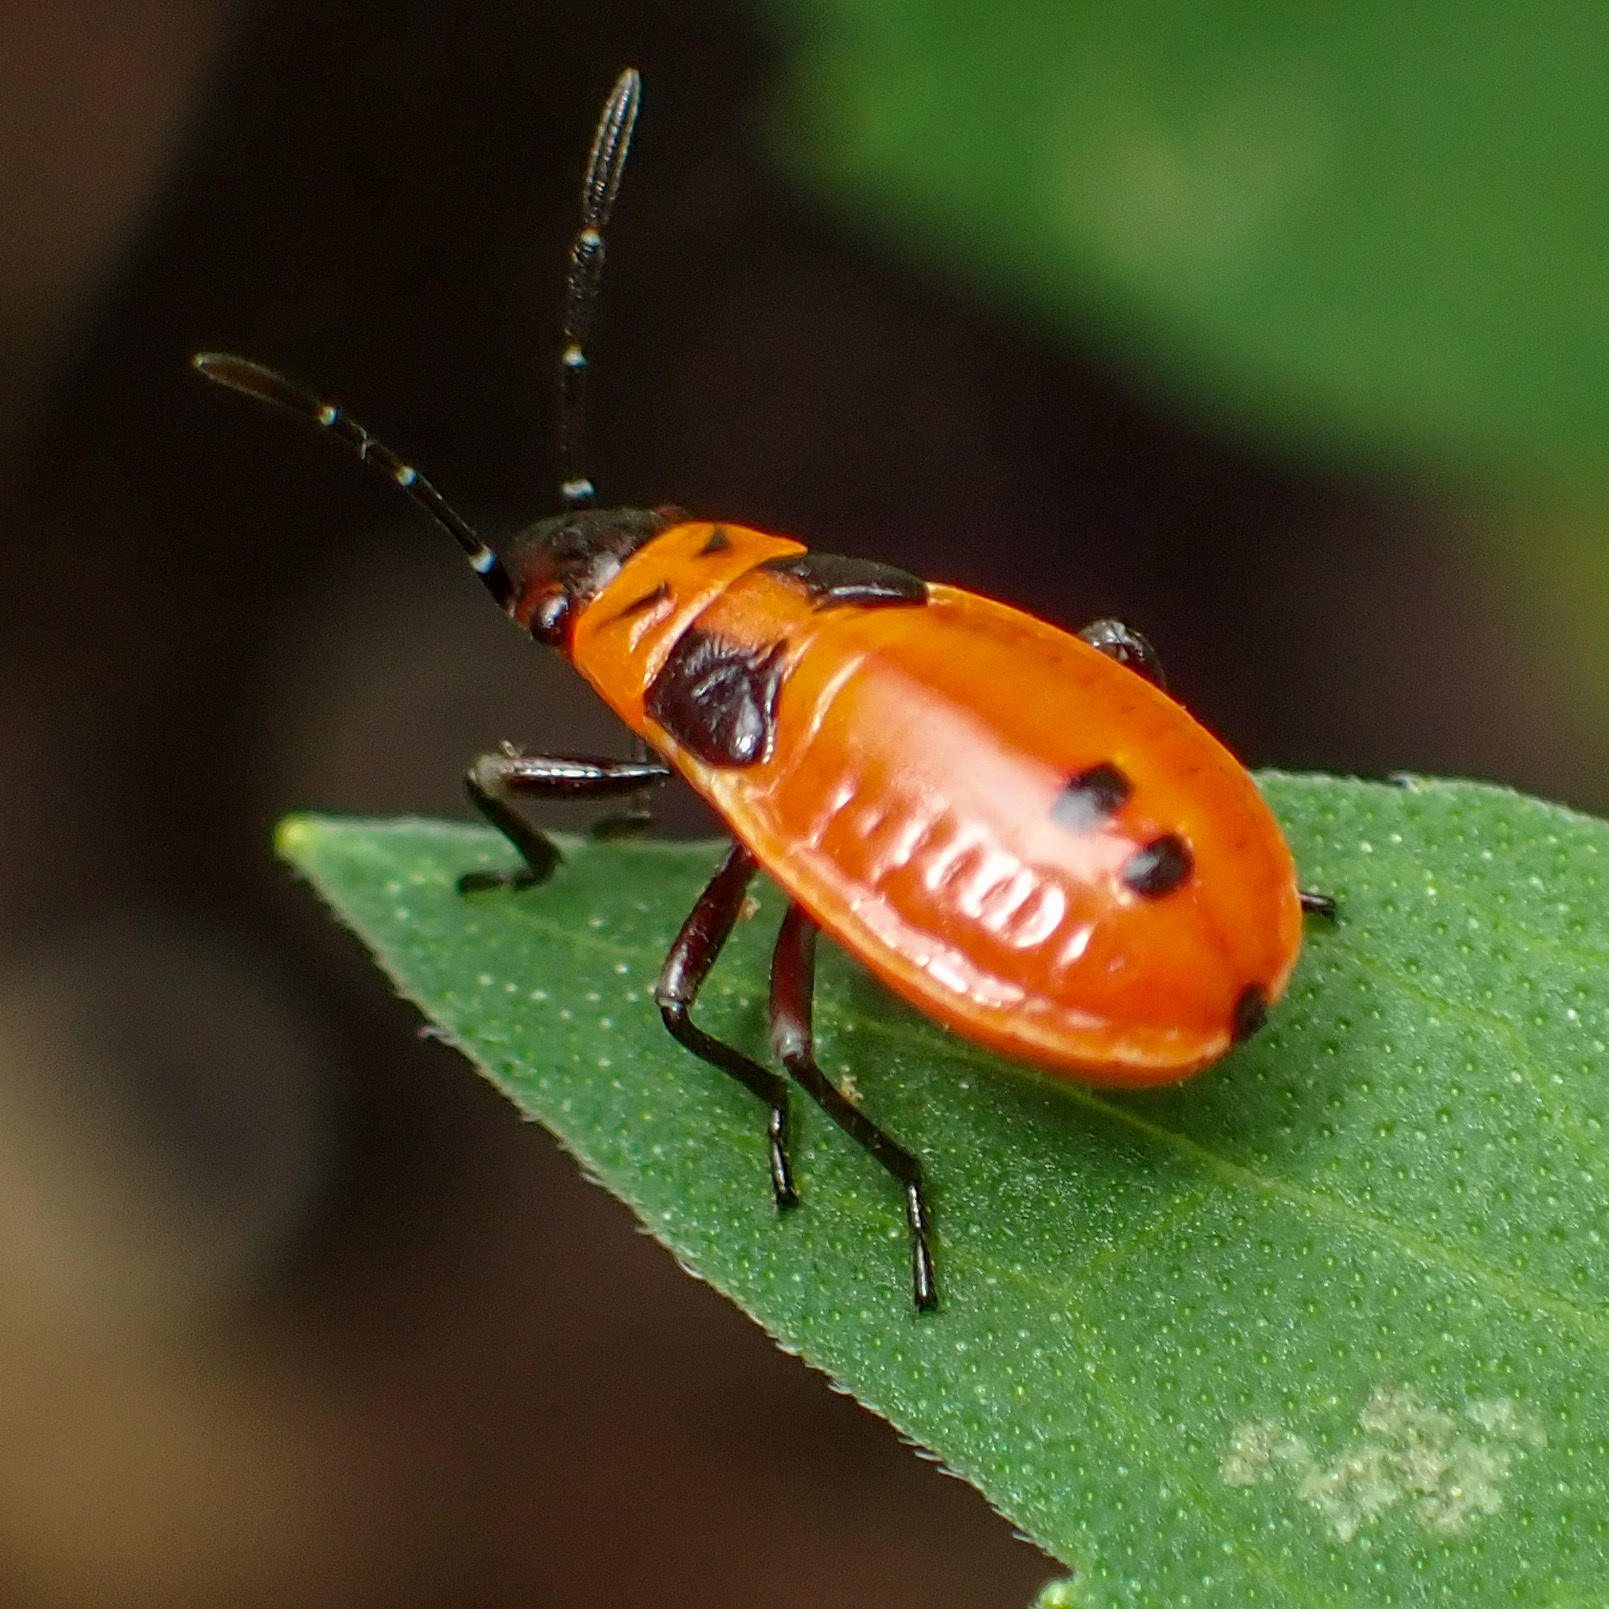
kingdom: Animalia
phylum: Arthropoda
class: Insecta
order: Hemiptera
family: Lygaeidae
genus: Lygaeus
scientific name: Lygaeus turcicus
